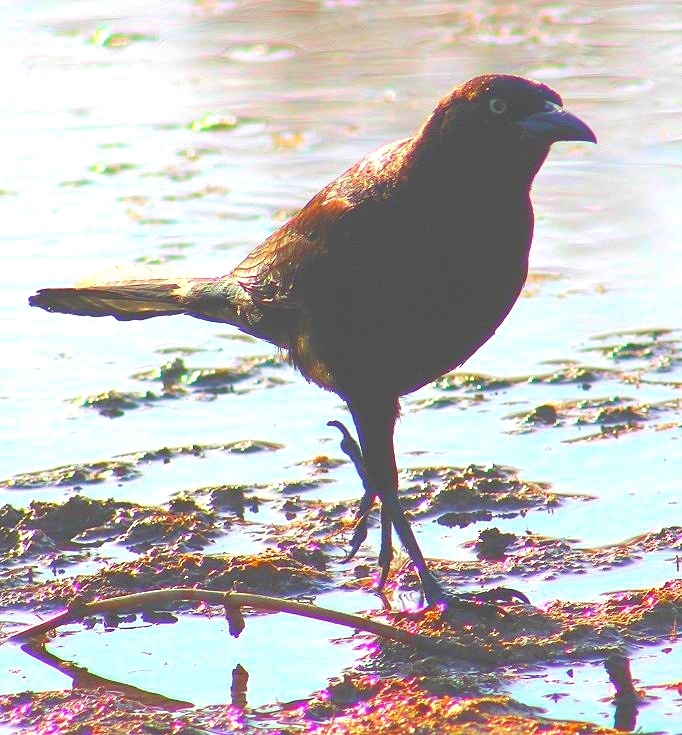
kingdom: Animalia
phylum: Chordata
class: Aves
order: Passeriformes
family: Icteridae
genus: Quiscalus
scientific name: Quiscalus mexicanus
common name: Great-tailed grackle
